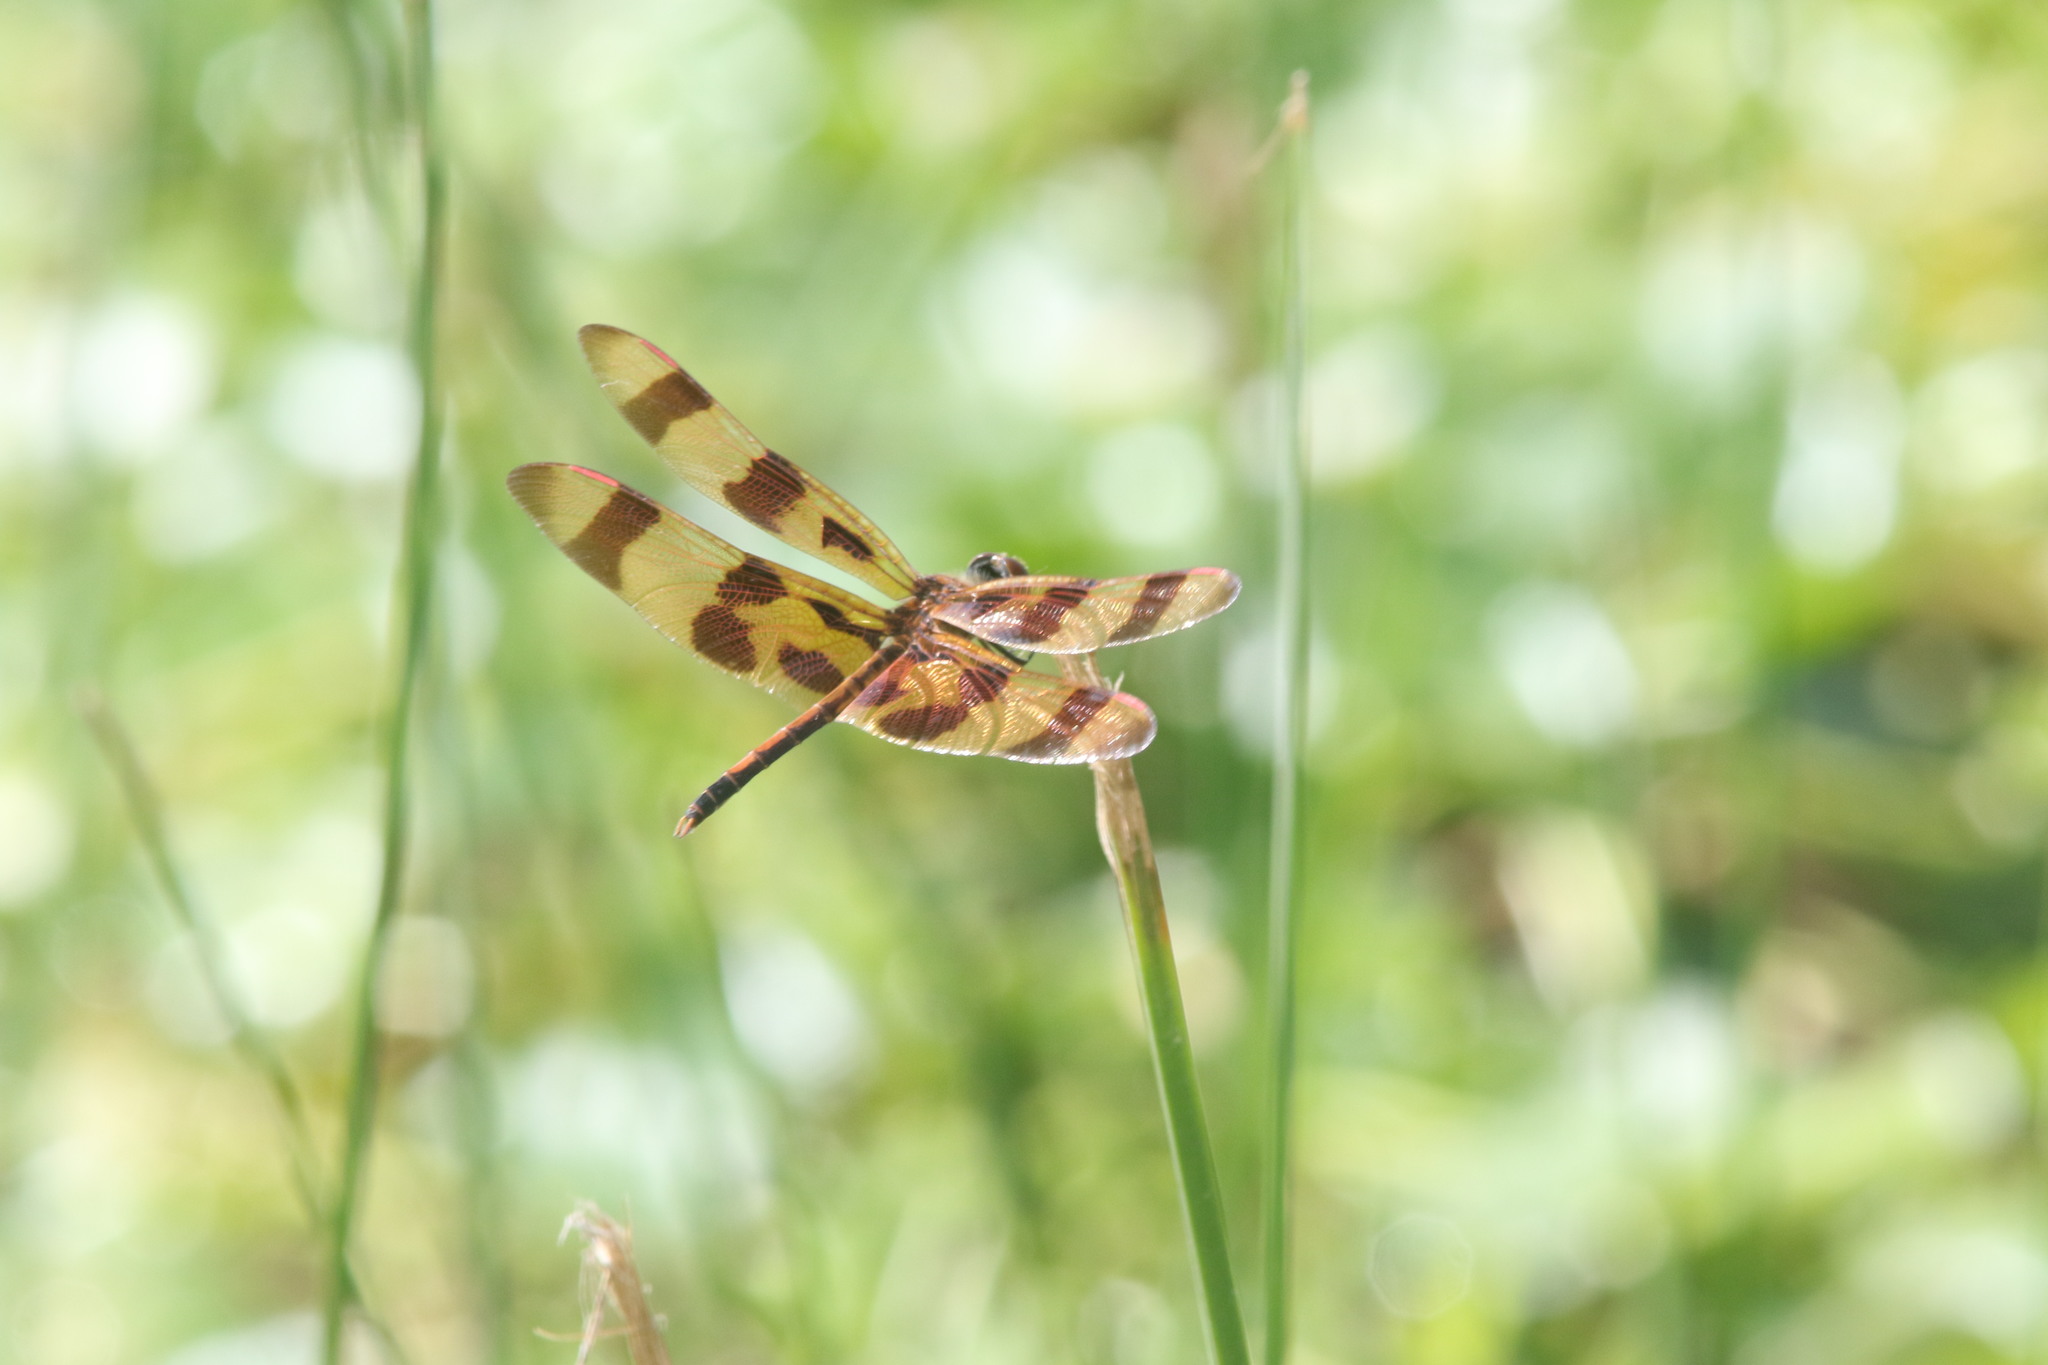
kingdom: Animalia
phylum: Arthropoda
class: Insecta
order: Odonata
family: Libellulidae
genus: Celithemis
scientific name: Celithemis eponina
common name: Halloween pennant
